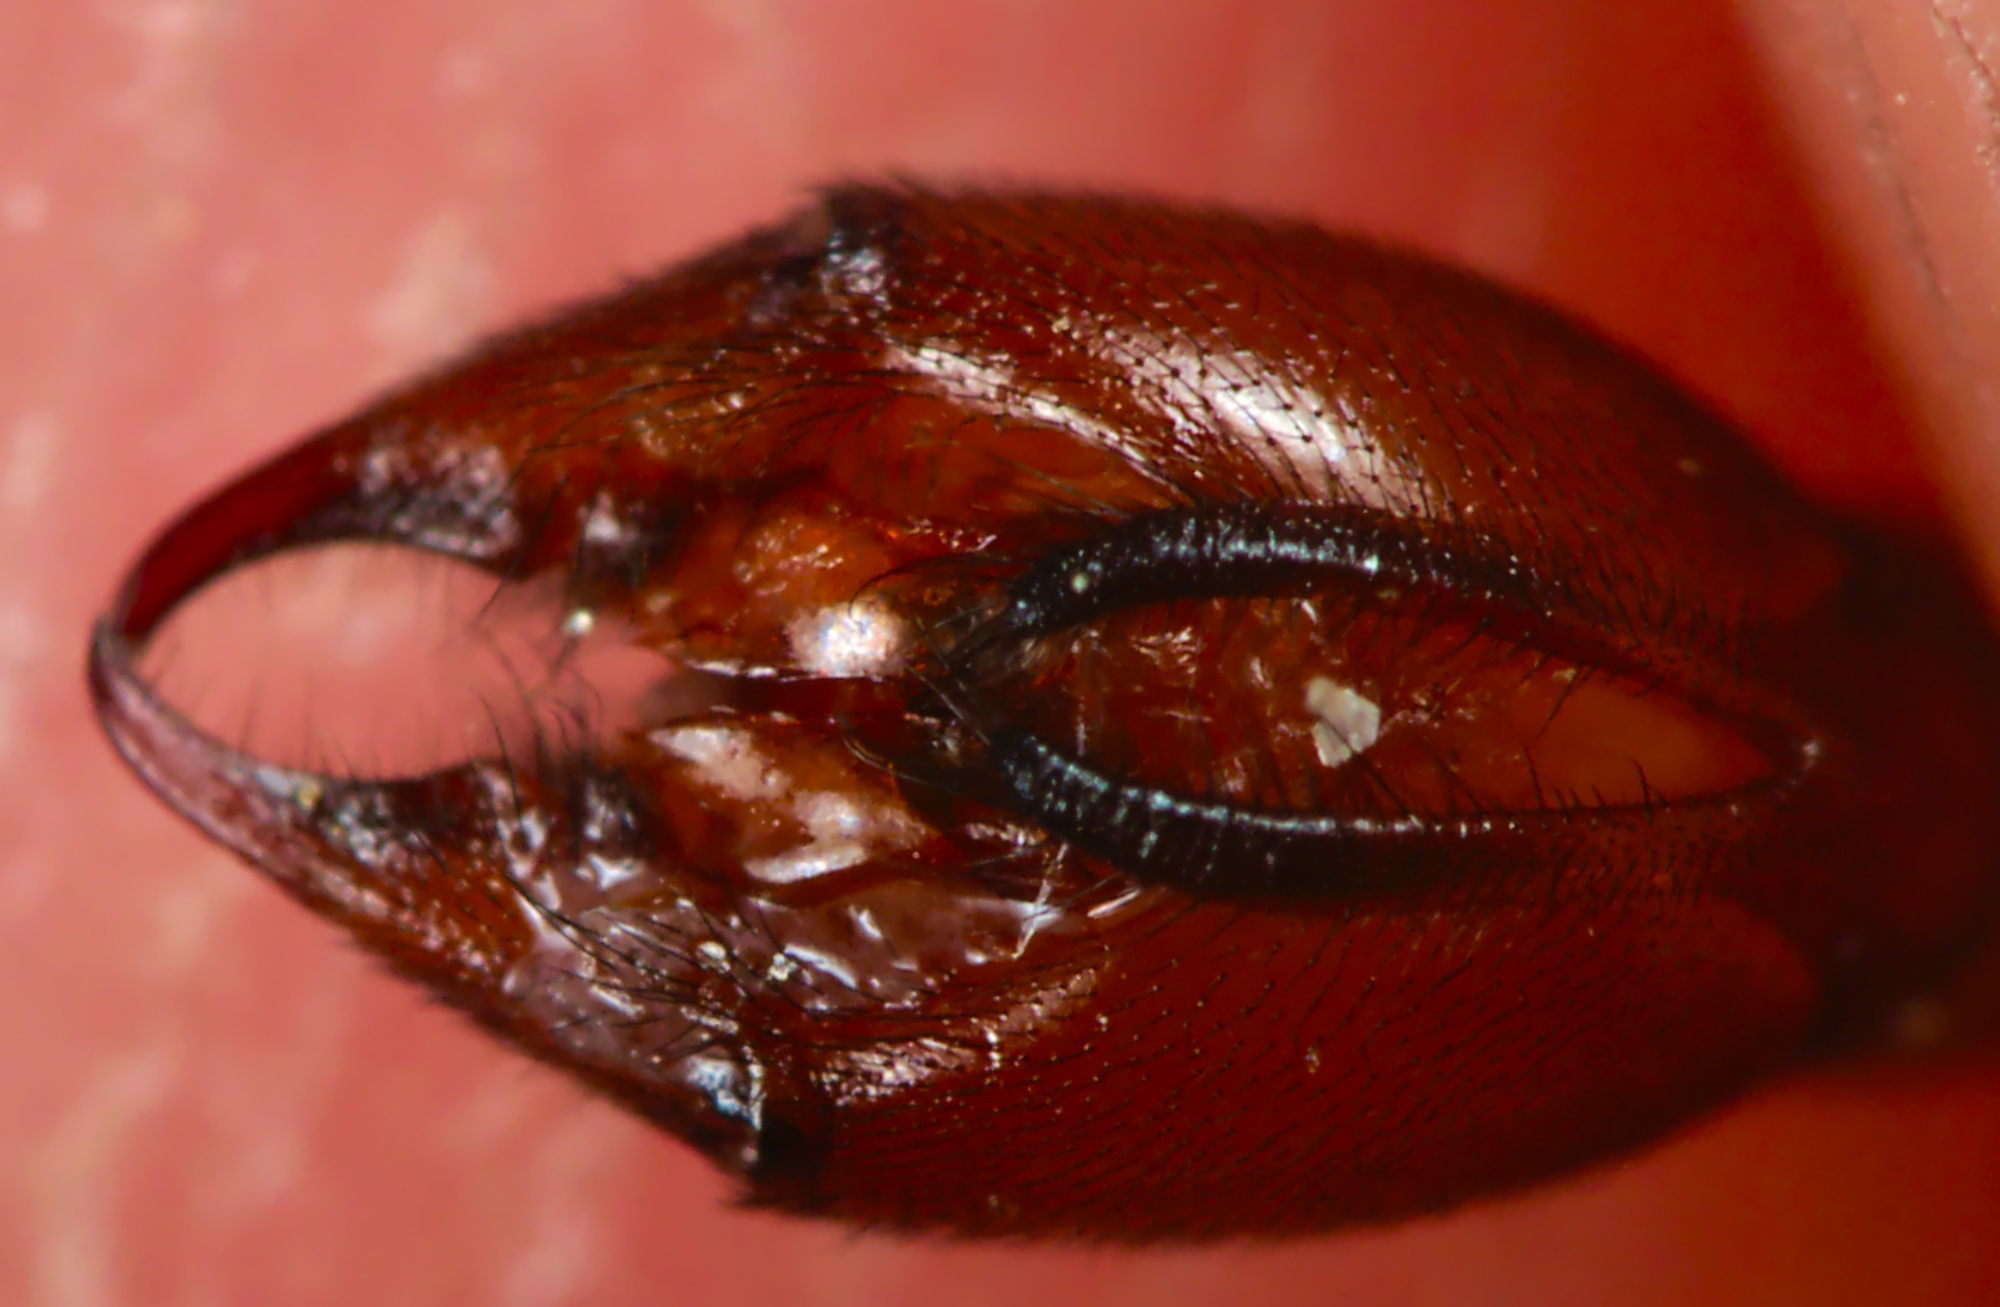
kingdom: Animalia
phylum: Arthropoda
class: Insecta
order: Mecoptera
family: Panorpidae
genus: Panorpa
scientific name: Panorpa communis
